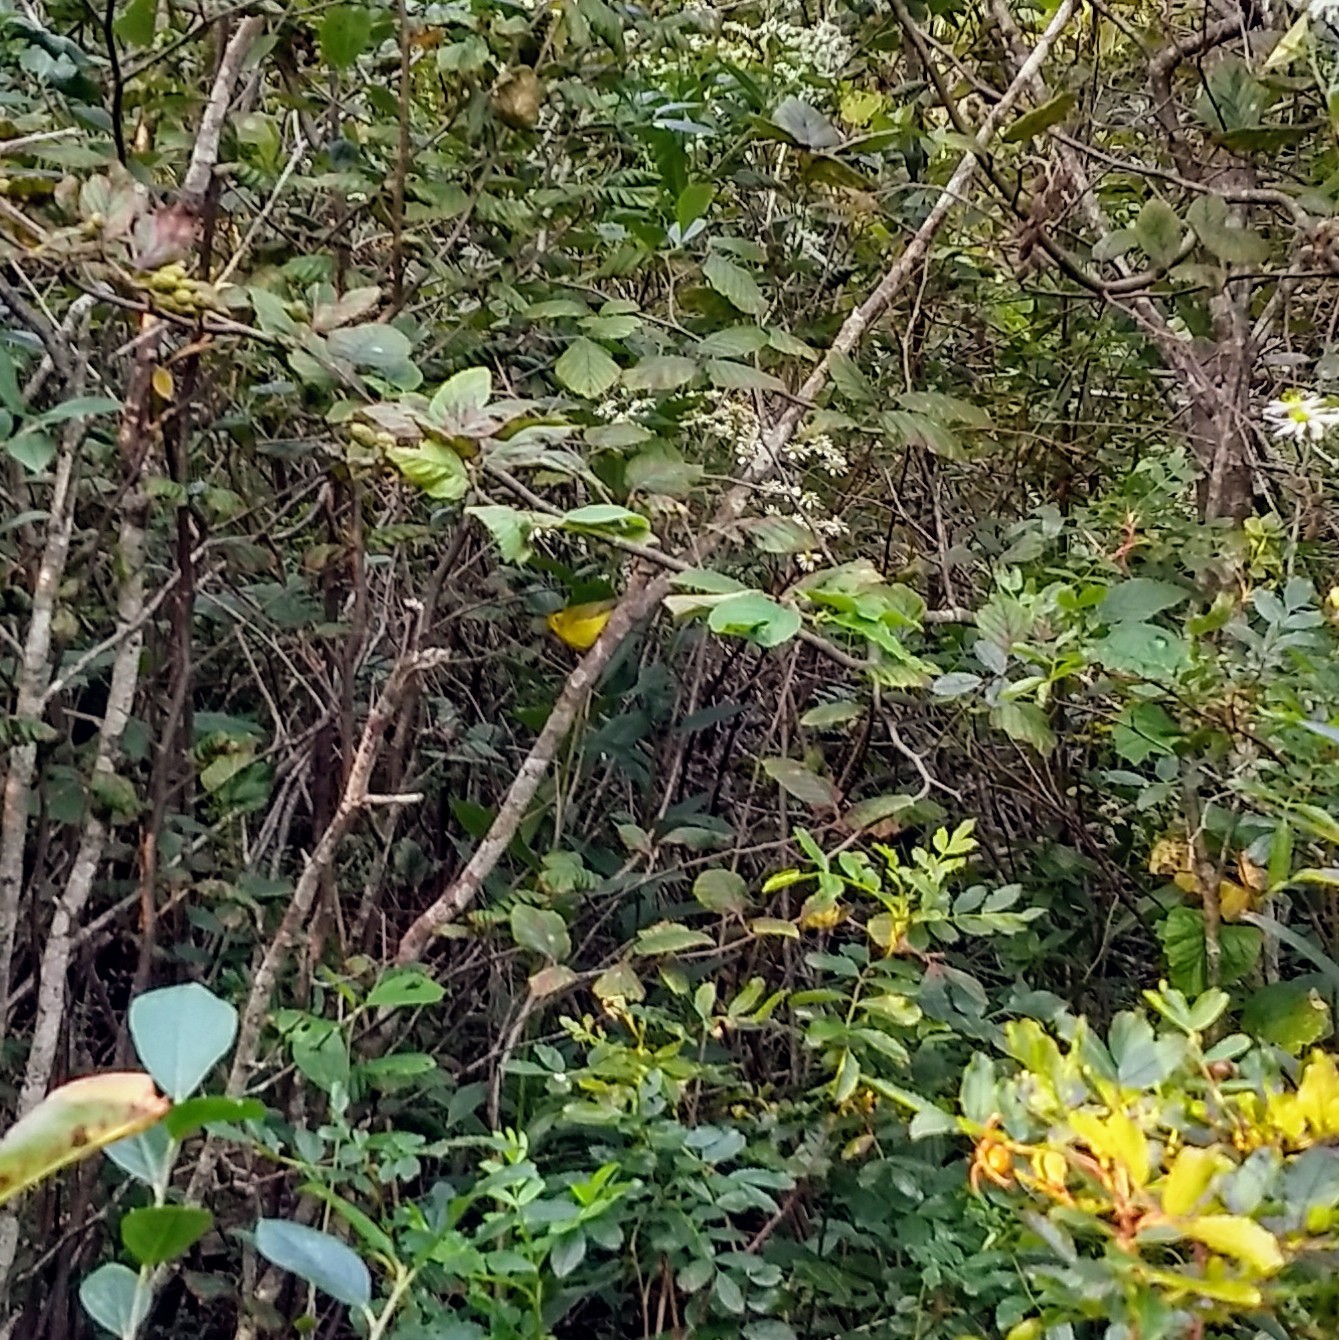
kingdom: Animalia
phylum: Chordata
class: Aves
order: Passeriformes
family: Parulidae
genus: Cardellina
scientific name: Cardellina pusilla
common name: Wilson's warbler
